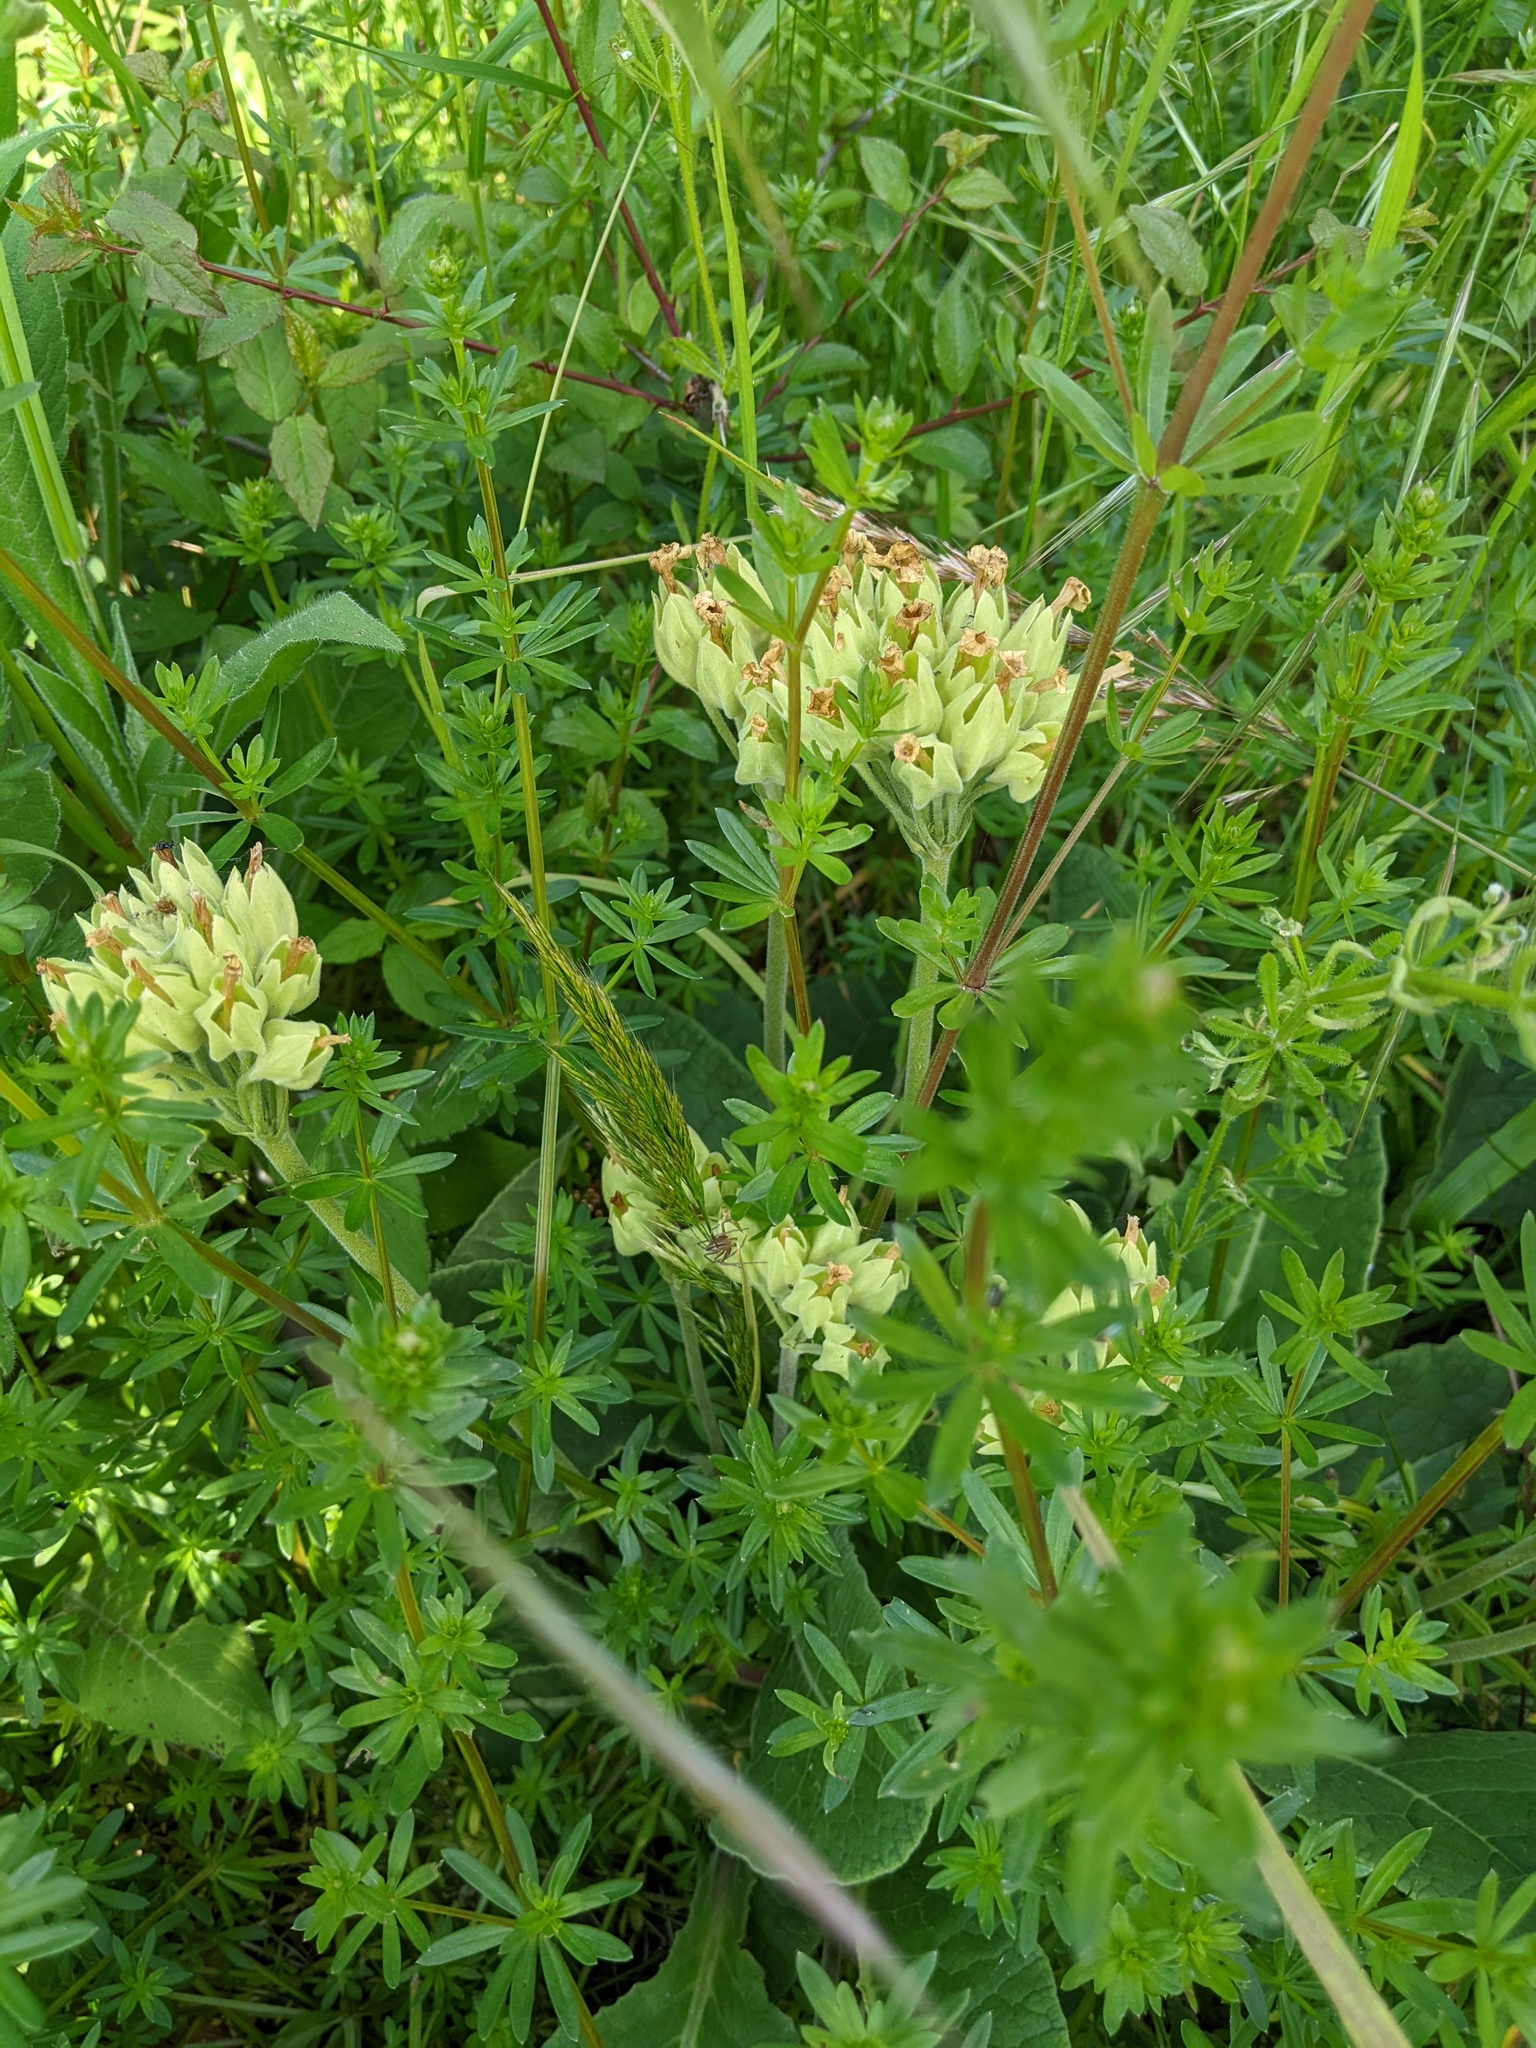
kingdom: Plantae
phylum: Tracheophyta
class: Magnoliopsida
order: Ericales
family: Primulaceae
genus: Primula
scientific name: Primula veris
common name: Cowslip
